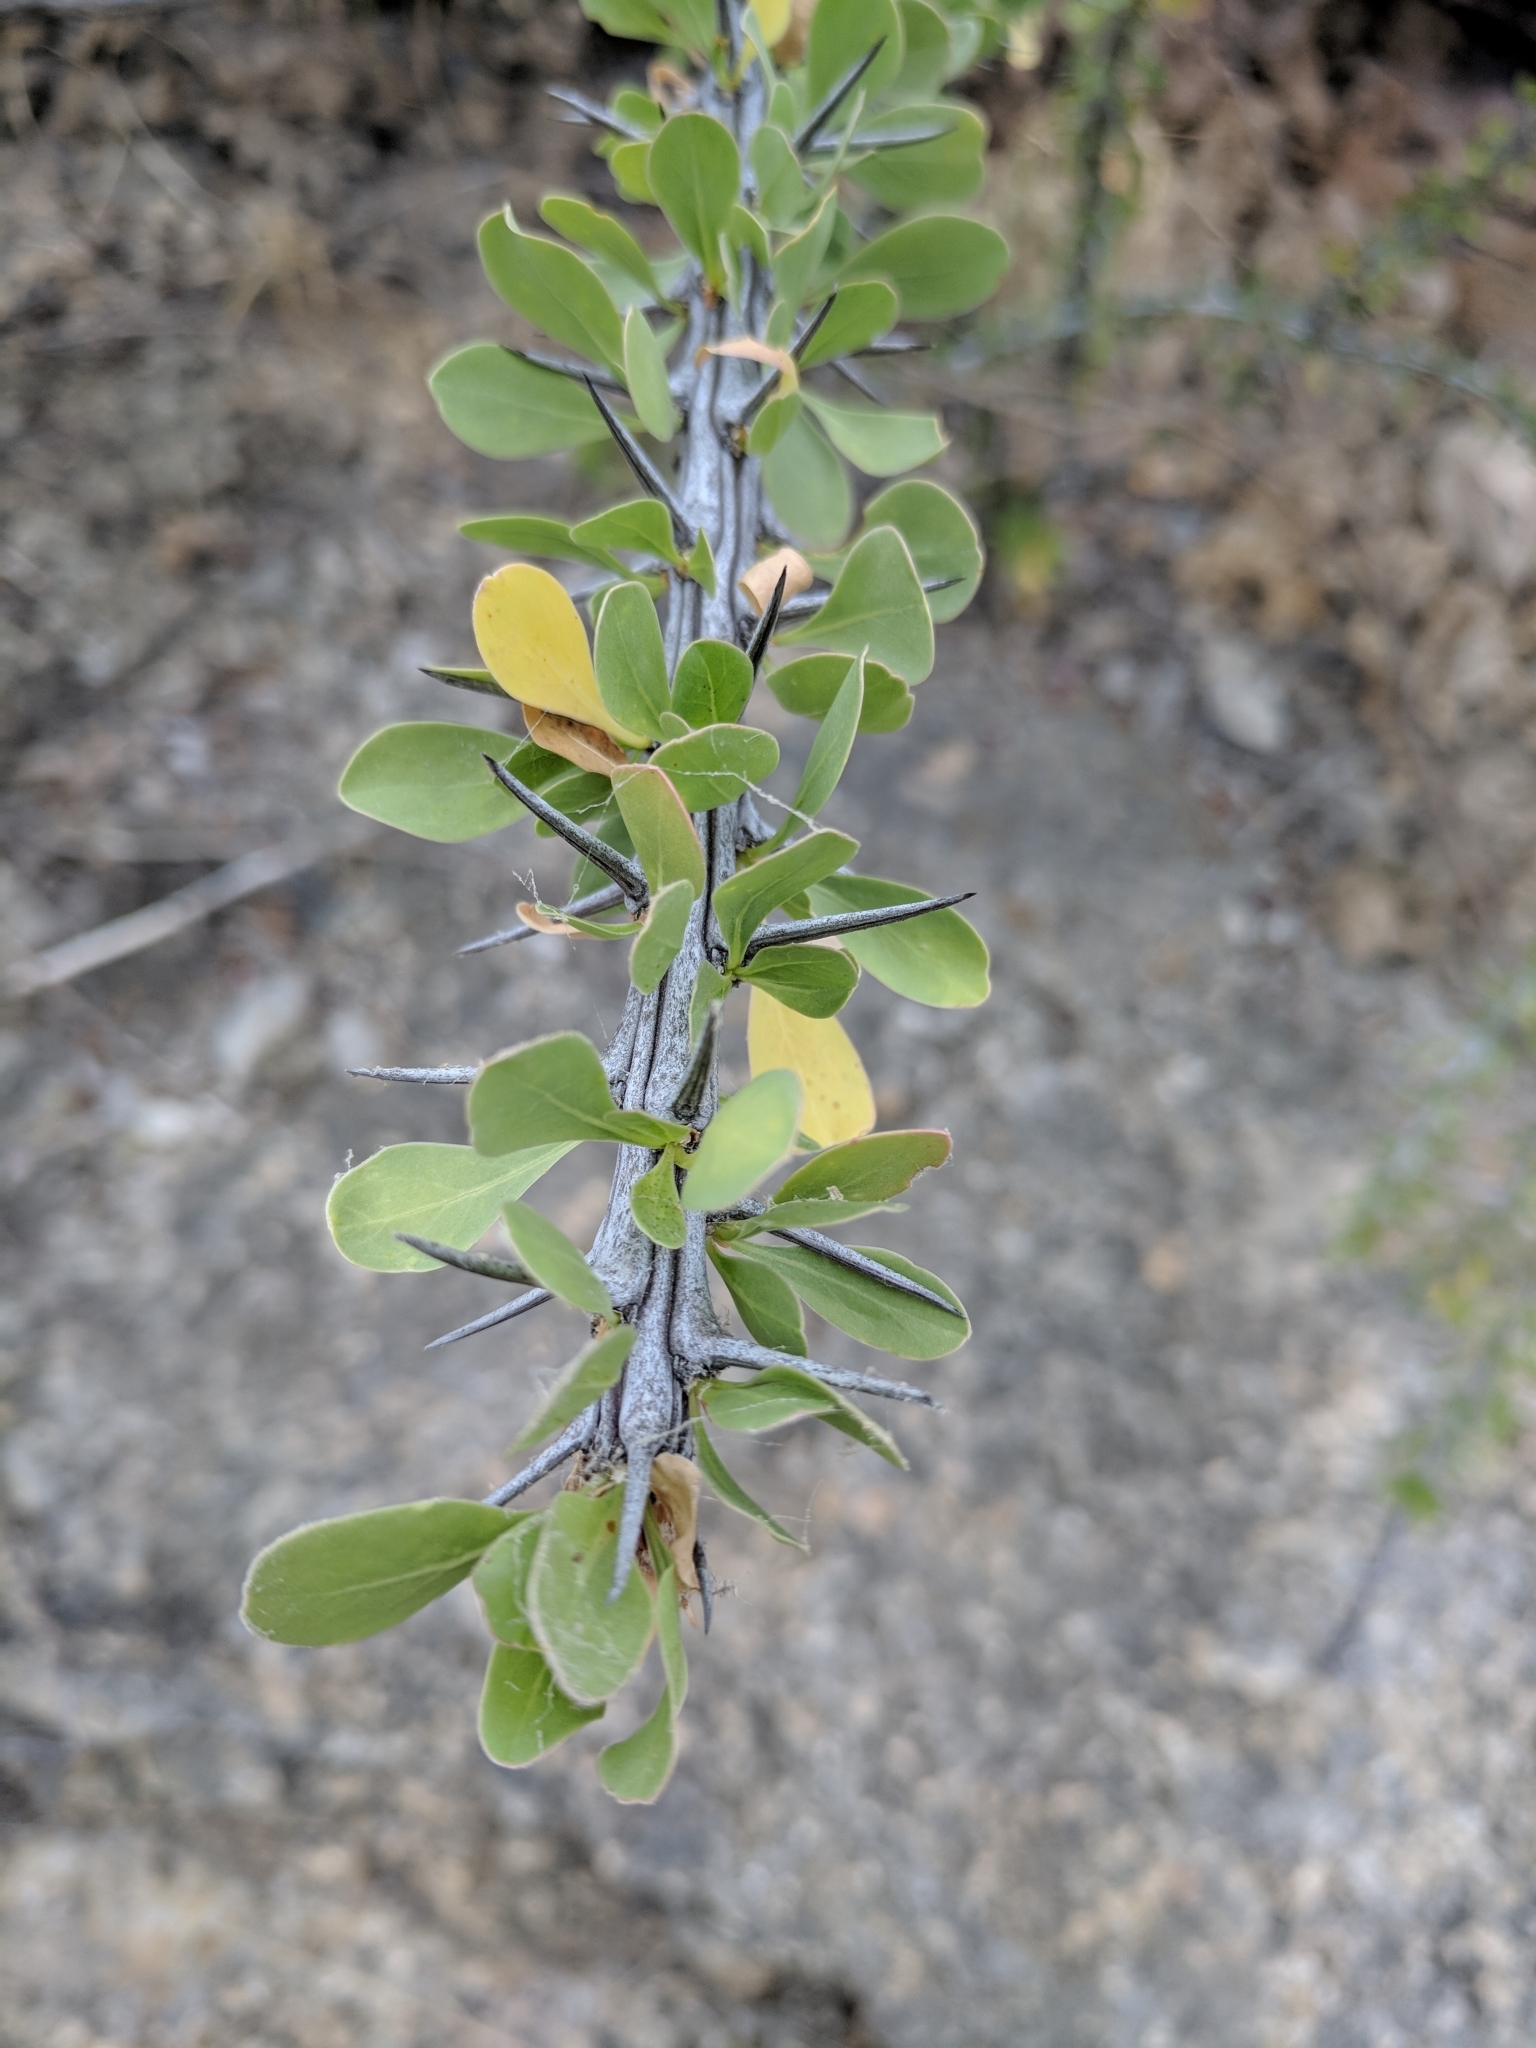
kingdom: Plantae
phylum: Tracheophyta
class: Magnoliopsida
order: Ericales
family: Fouquieriaceae
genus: Fouquieria
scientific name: Fouquieria splendens
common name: Vine-cactus
